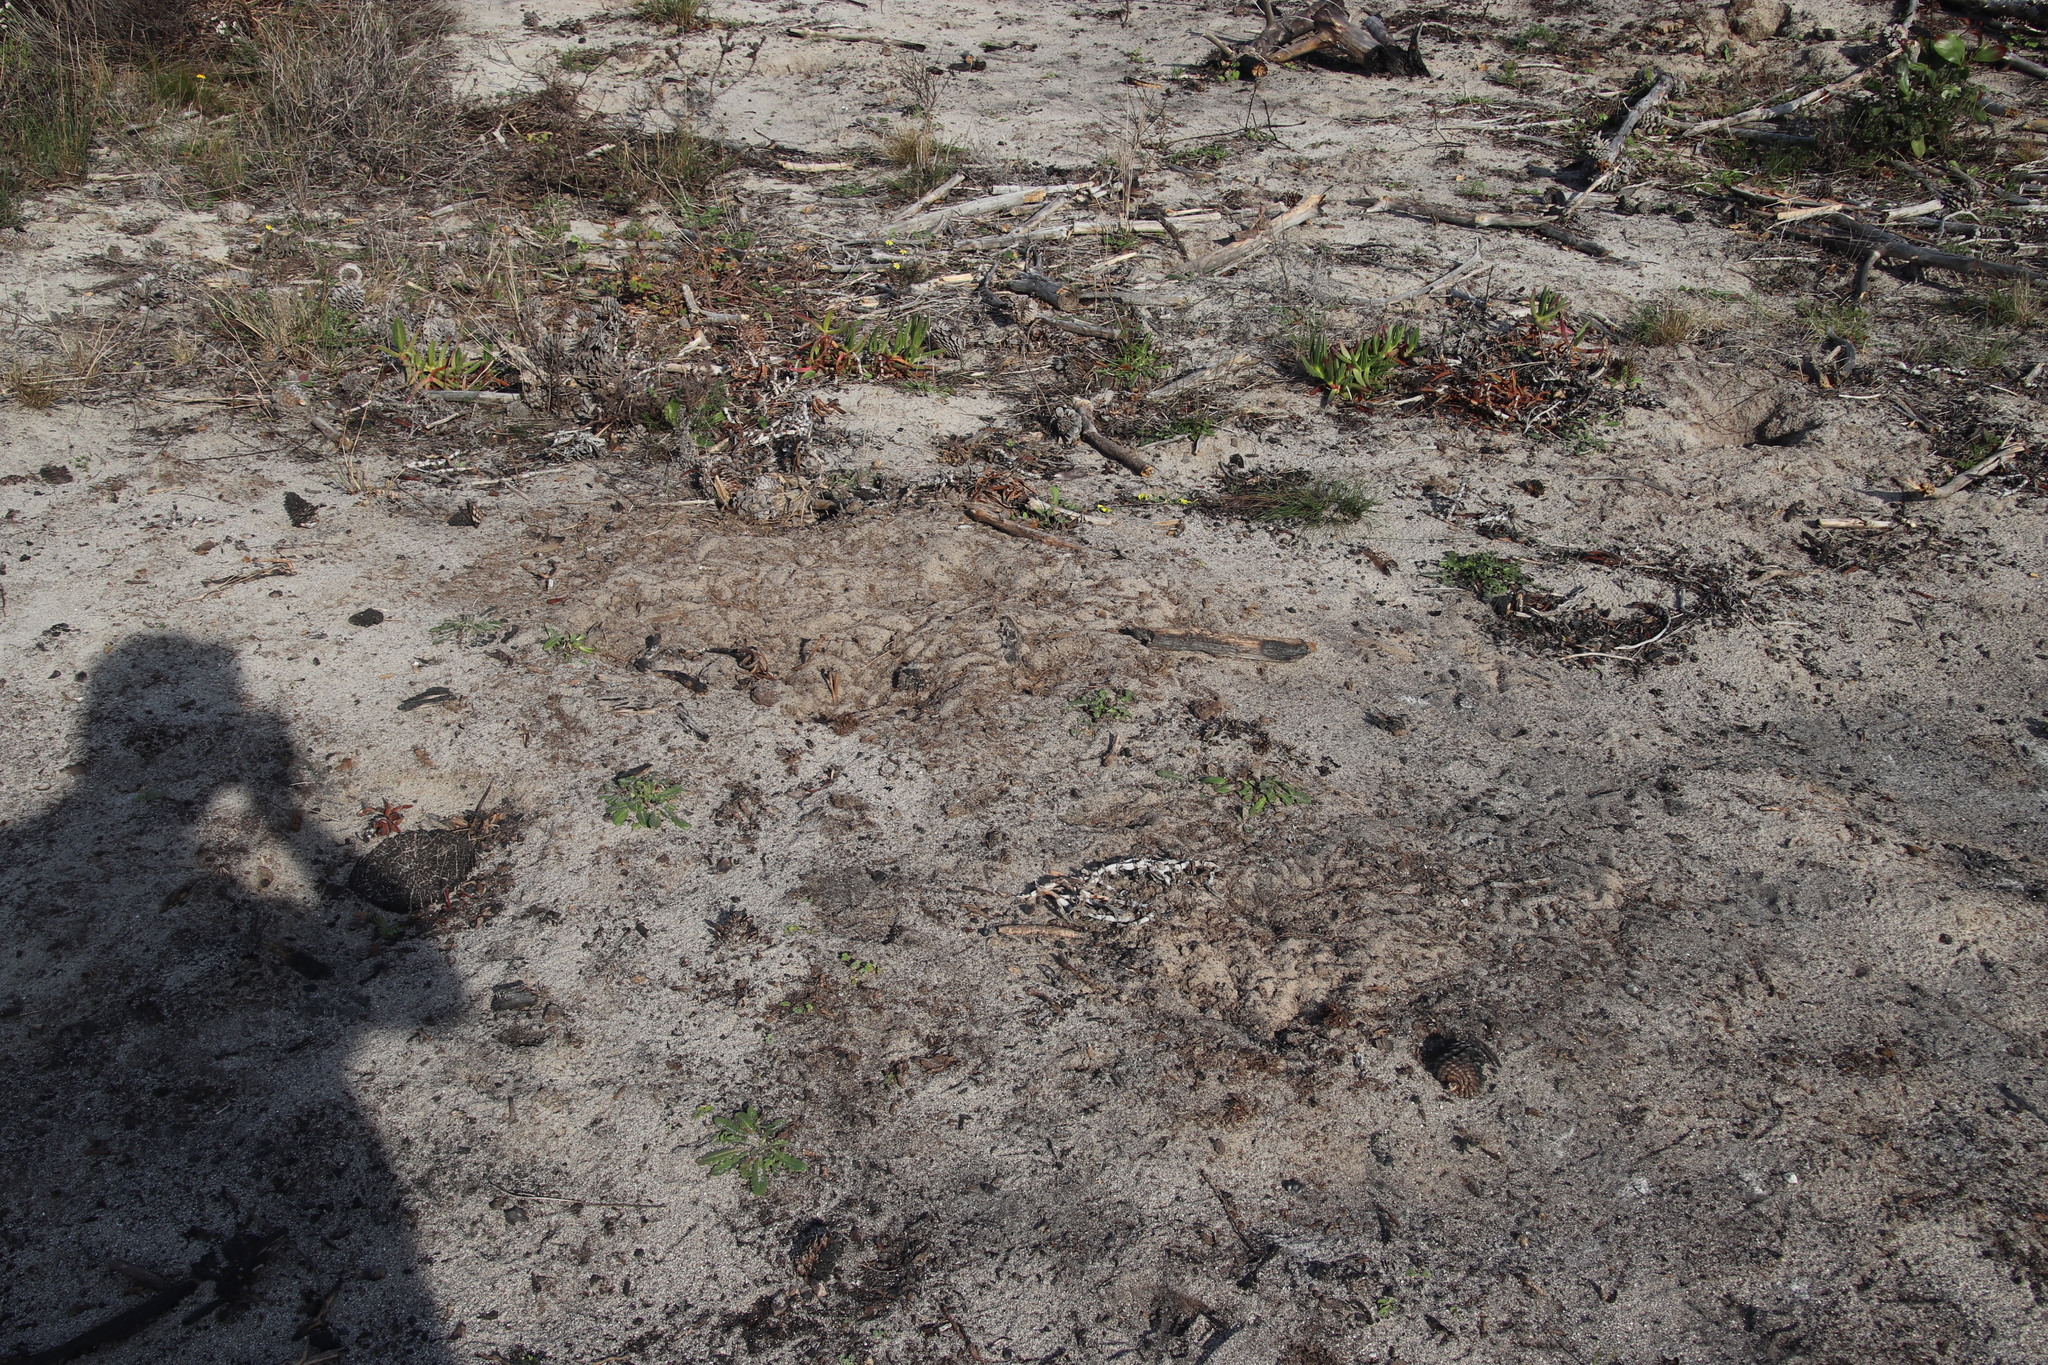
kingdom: Animalia
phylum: Chordata
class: Aves
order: Galliformes
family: Numididae
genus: Numida
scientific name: Numida meleagris
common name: Helmeted guineafowl
